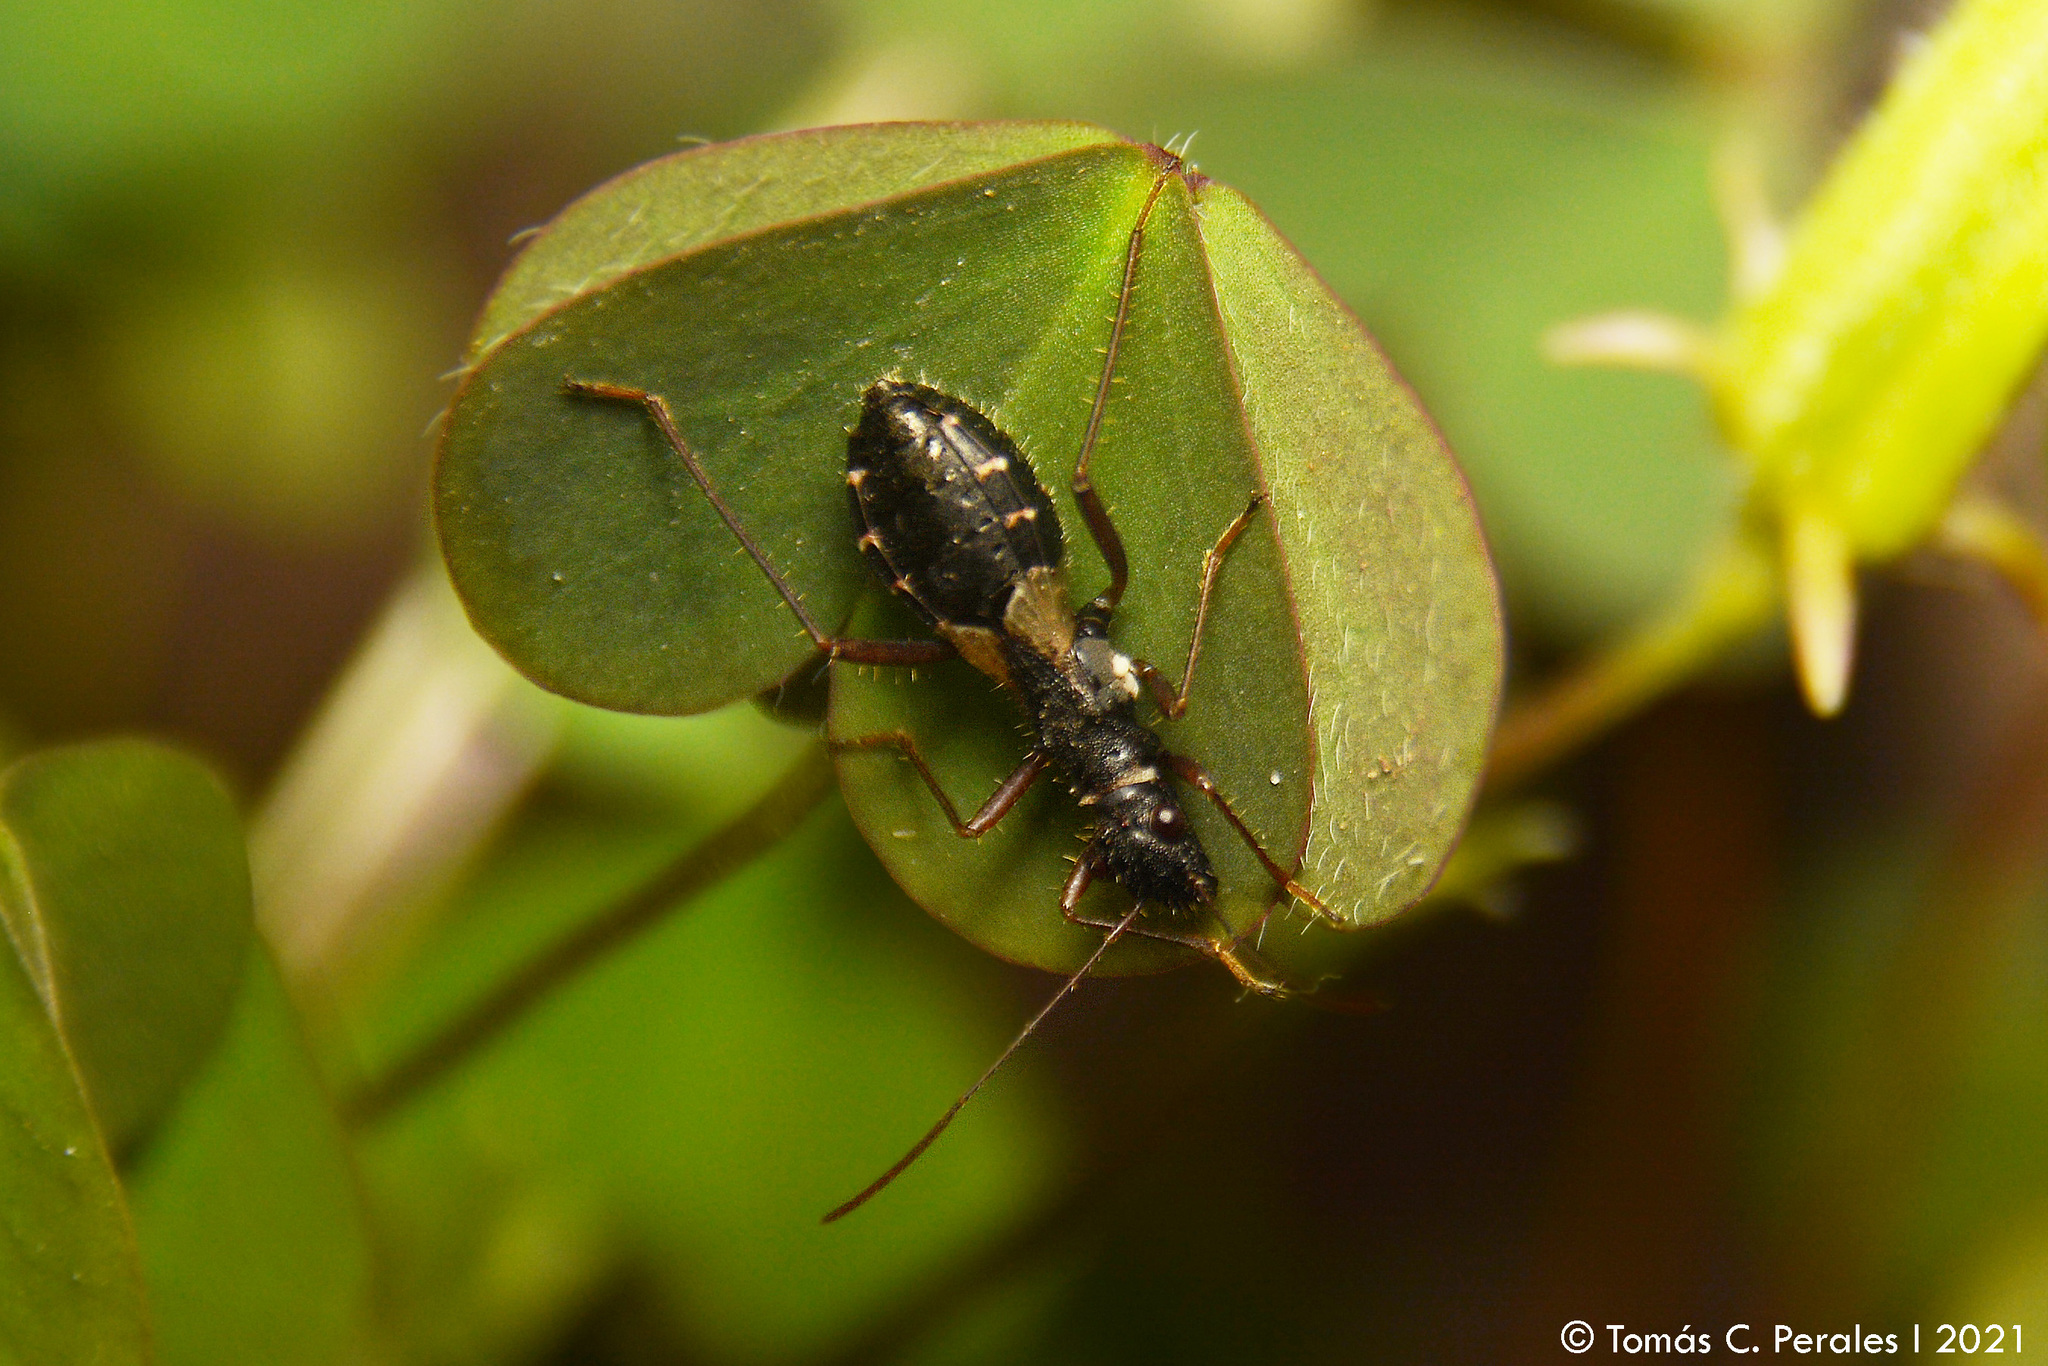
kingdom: Animalia
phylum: Arthropoda
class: Insecta
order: Hemiptera
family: Alydidae
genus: Cydamus
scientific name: Cydamus celeripes
